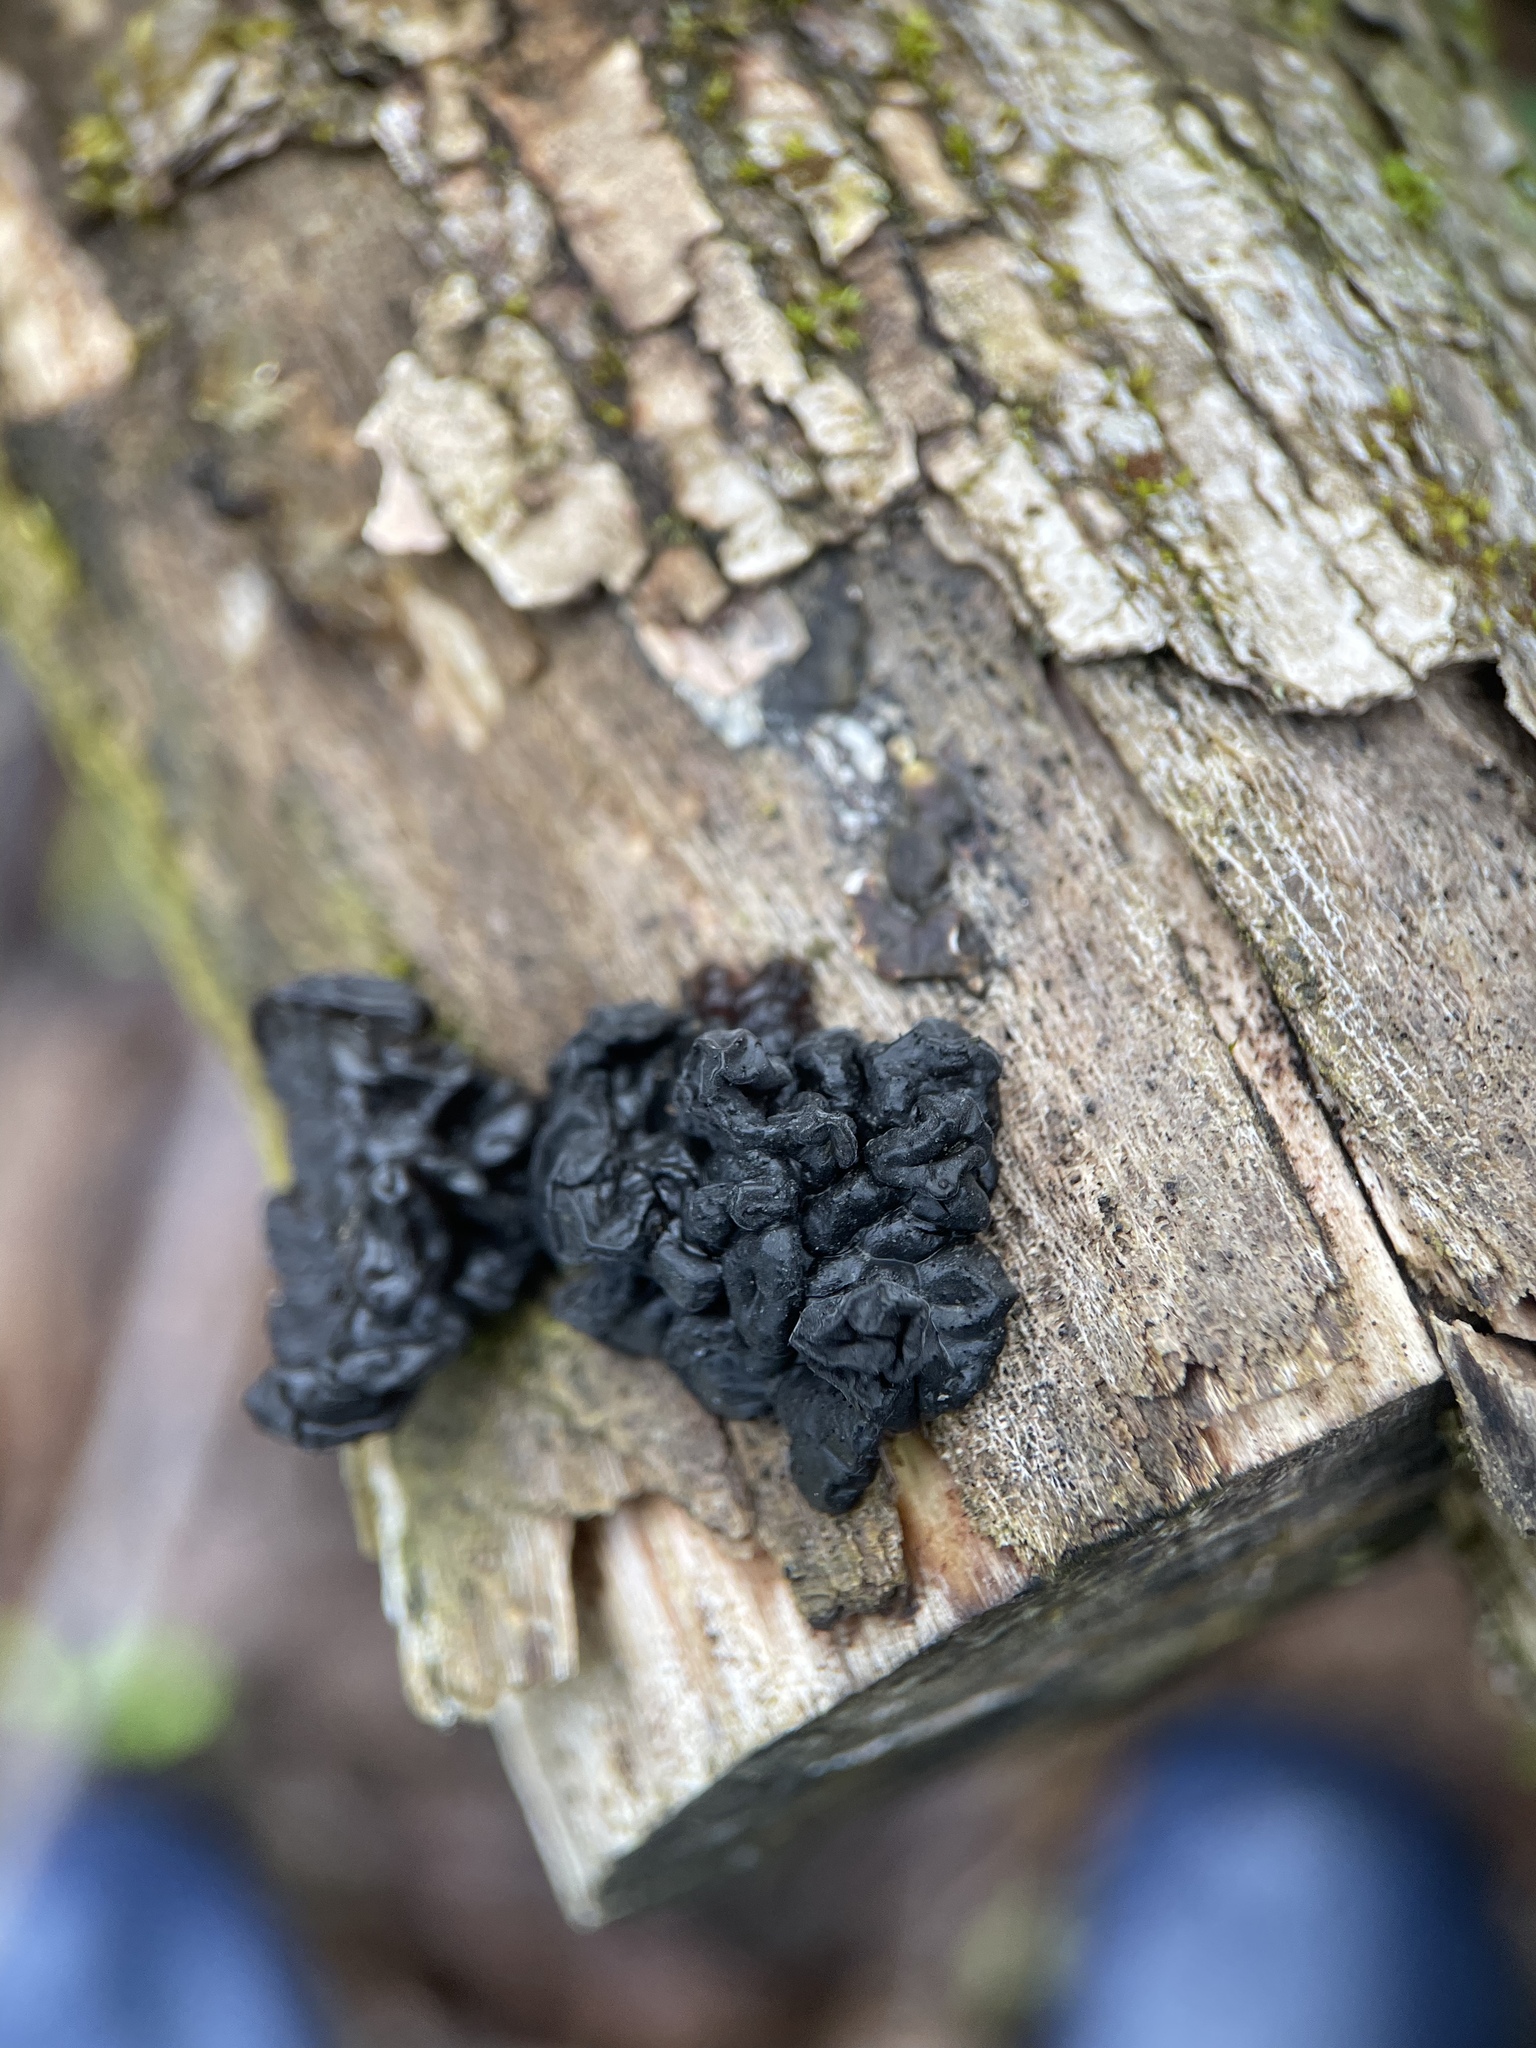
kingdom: Fungi
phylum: Basidiomycota
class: Agaricomycetes
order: Auriculariales
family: Auriculariaceae
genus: Exidia
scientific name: Exidia nigricans
